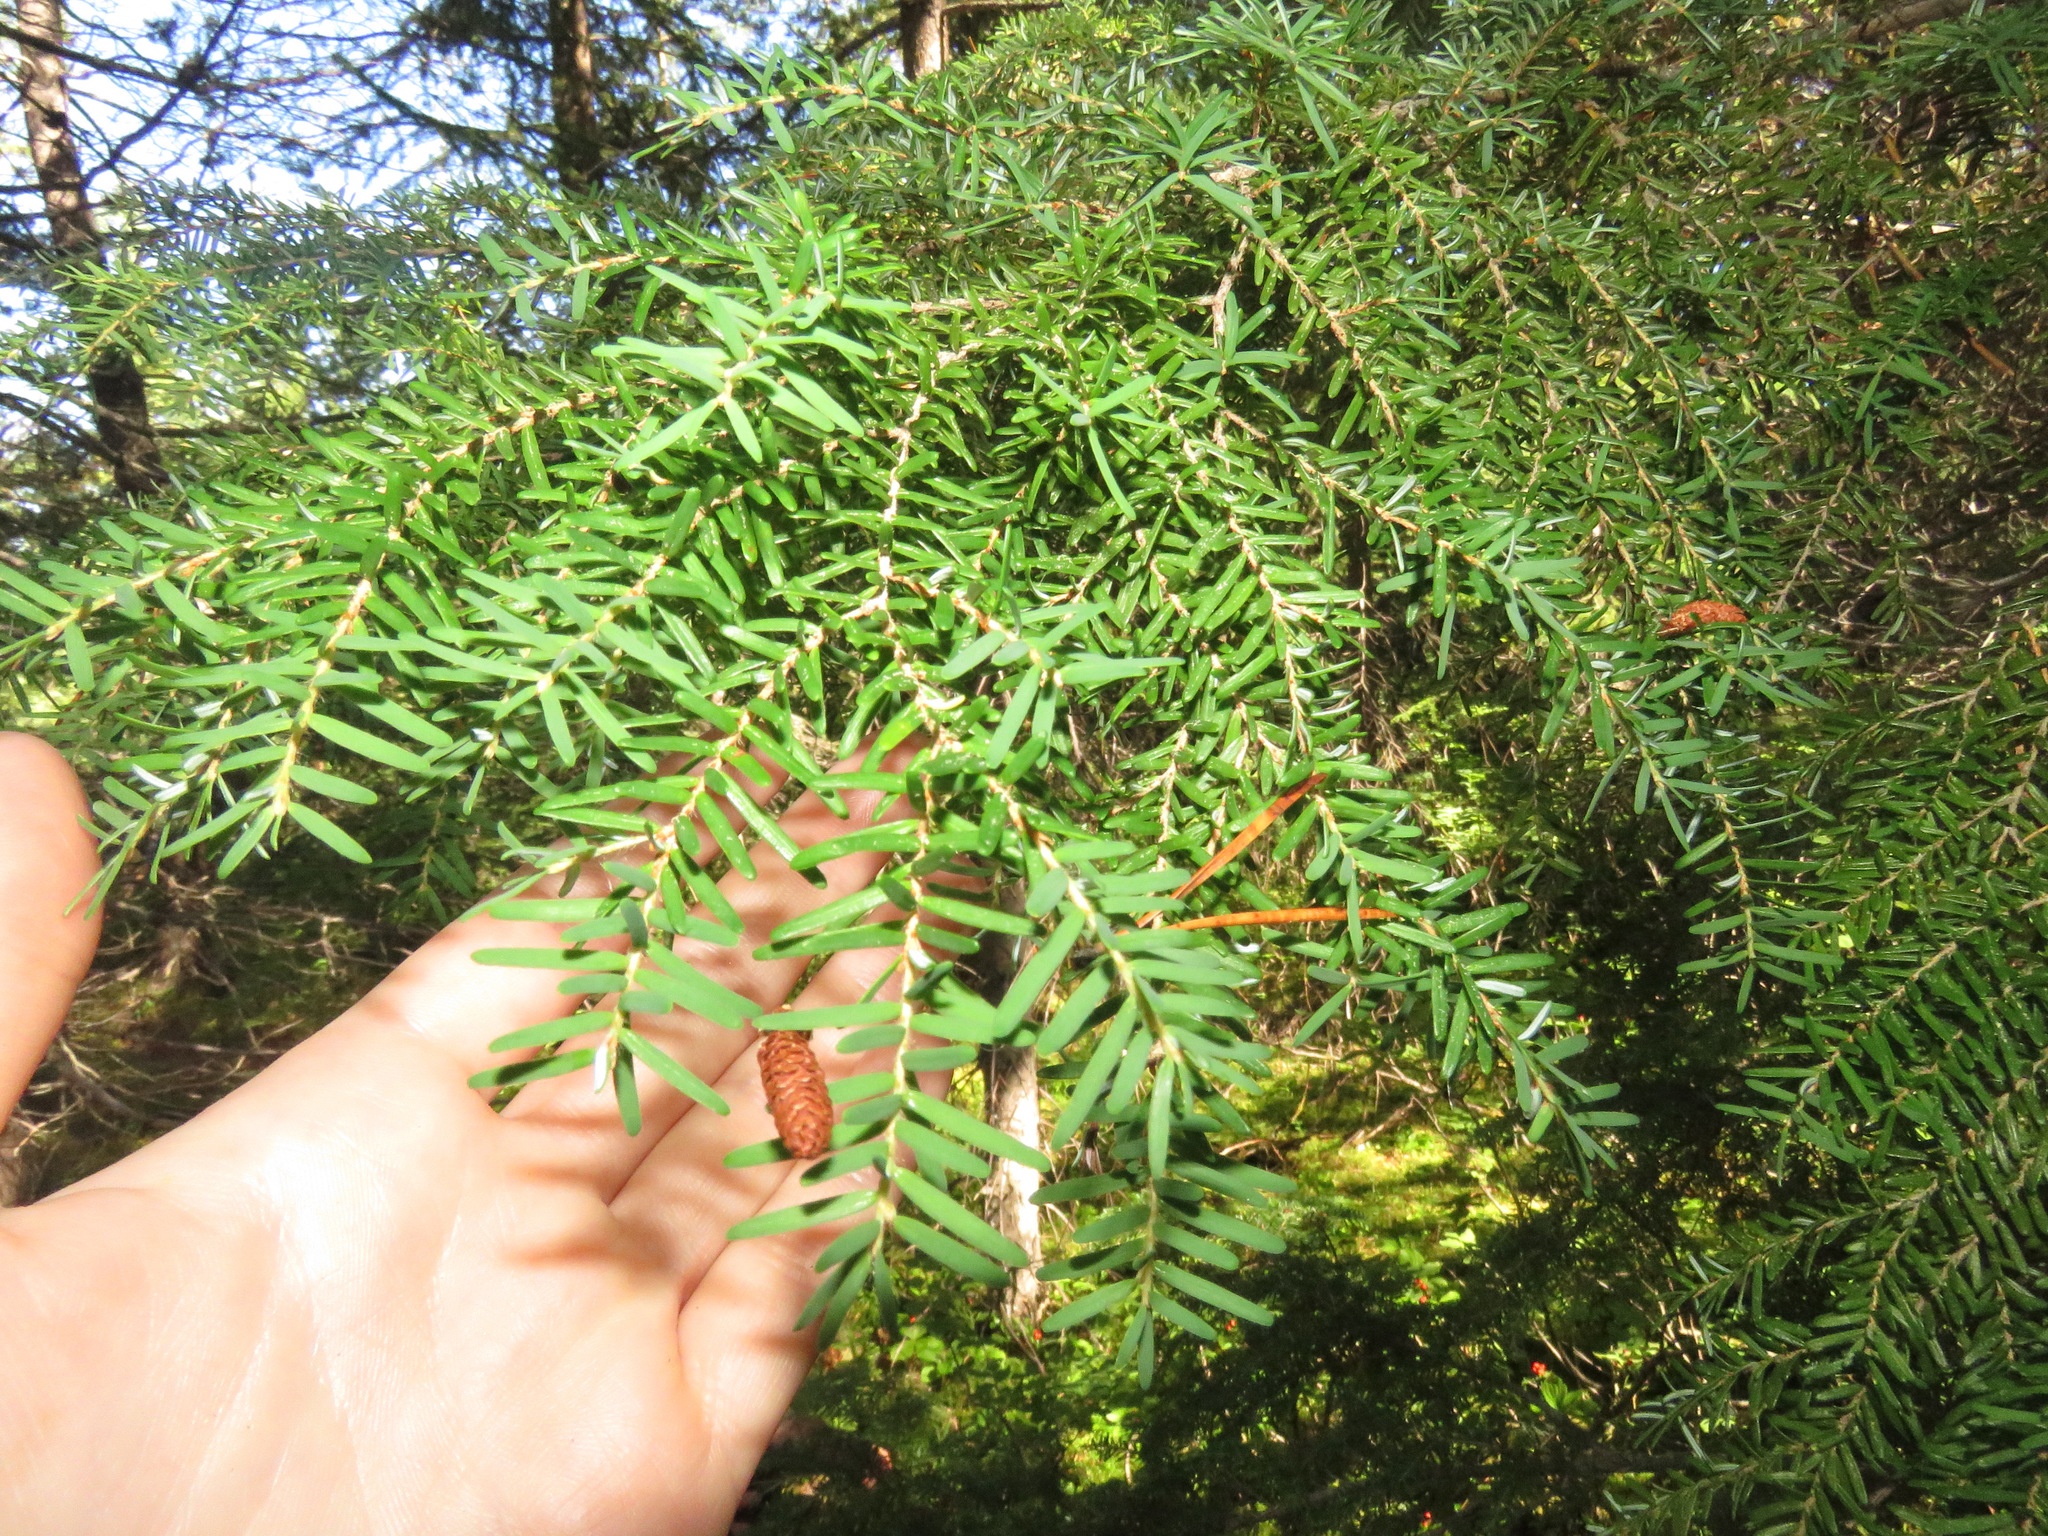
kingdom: Plantae
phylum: Tracheophyta
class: Pinopsida
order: Pinales
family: Pinaceae
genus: Tsuga
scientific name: Tsuga heterophylla
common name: Western hemlock
